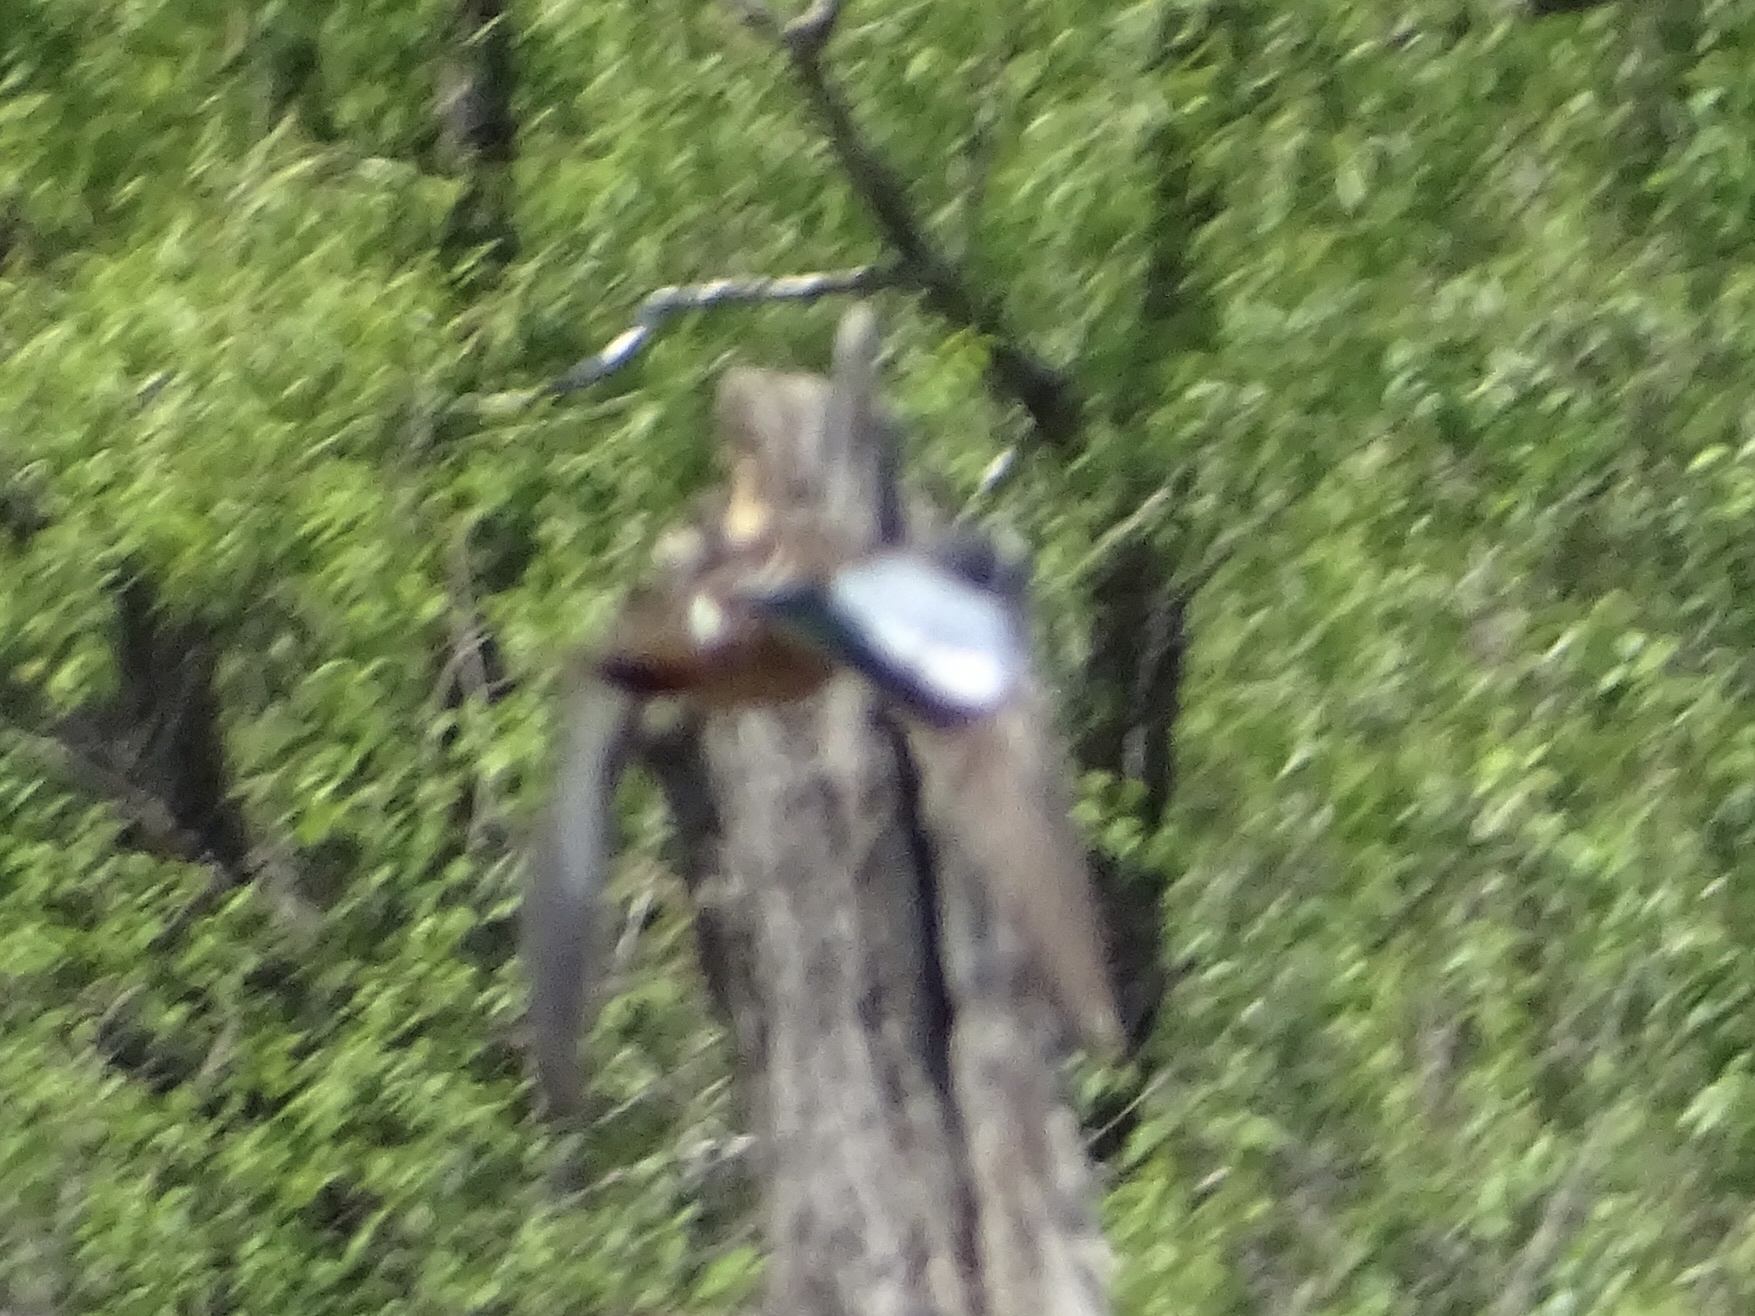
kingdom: Animalia
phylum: Chordata
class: Aves
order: Anseriformes
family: Anatidae
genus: Spatula
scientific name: Spatula discors
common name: Blue-winged teal
